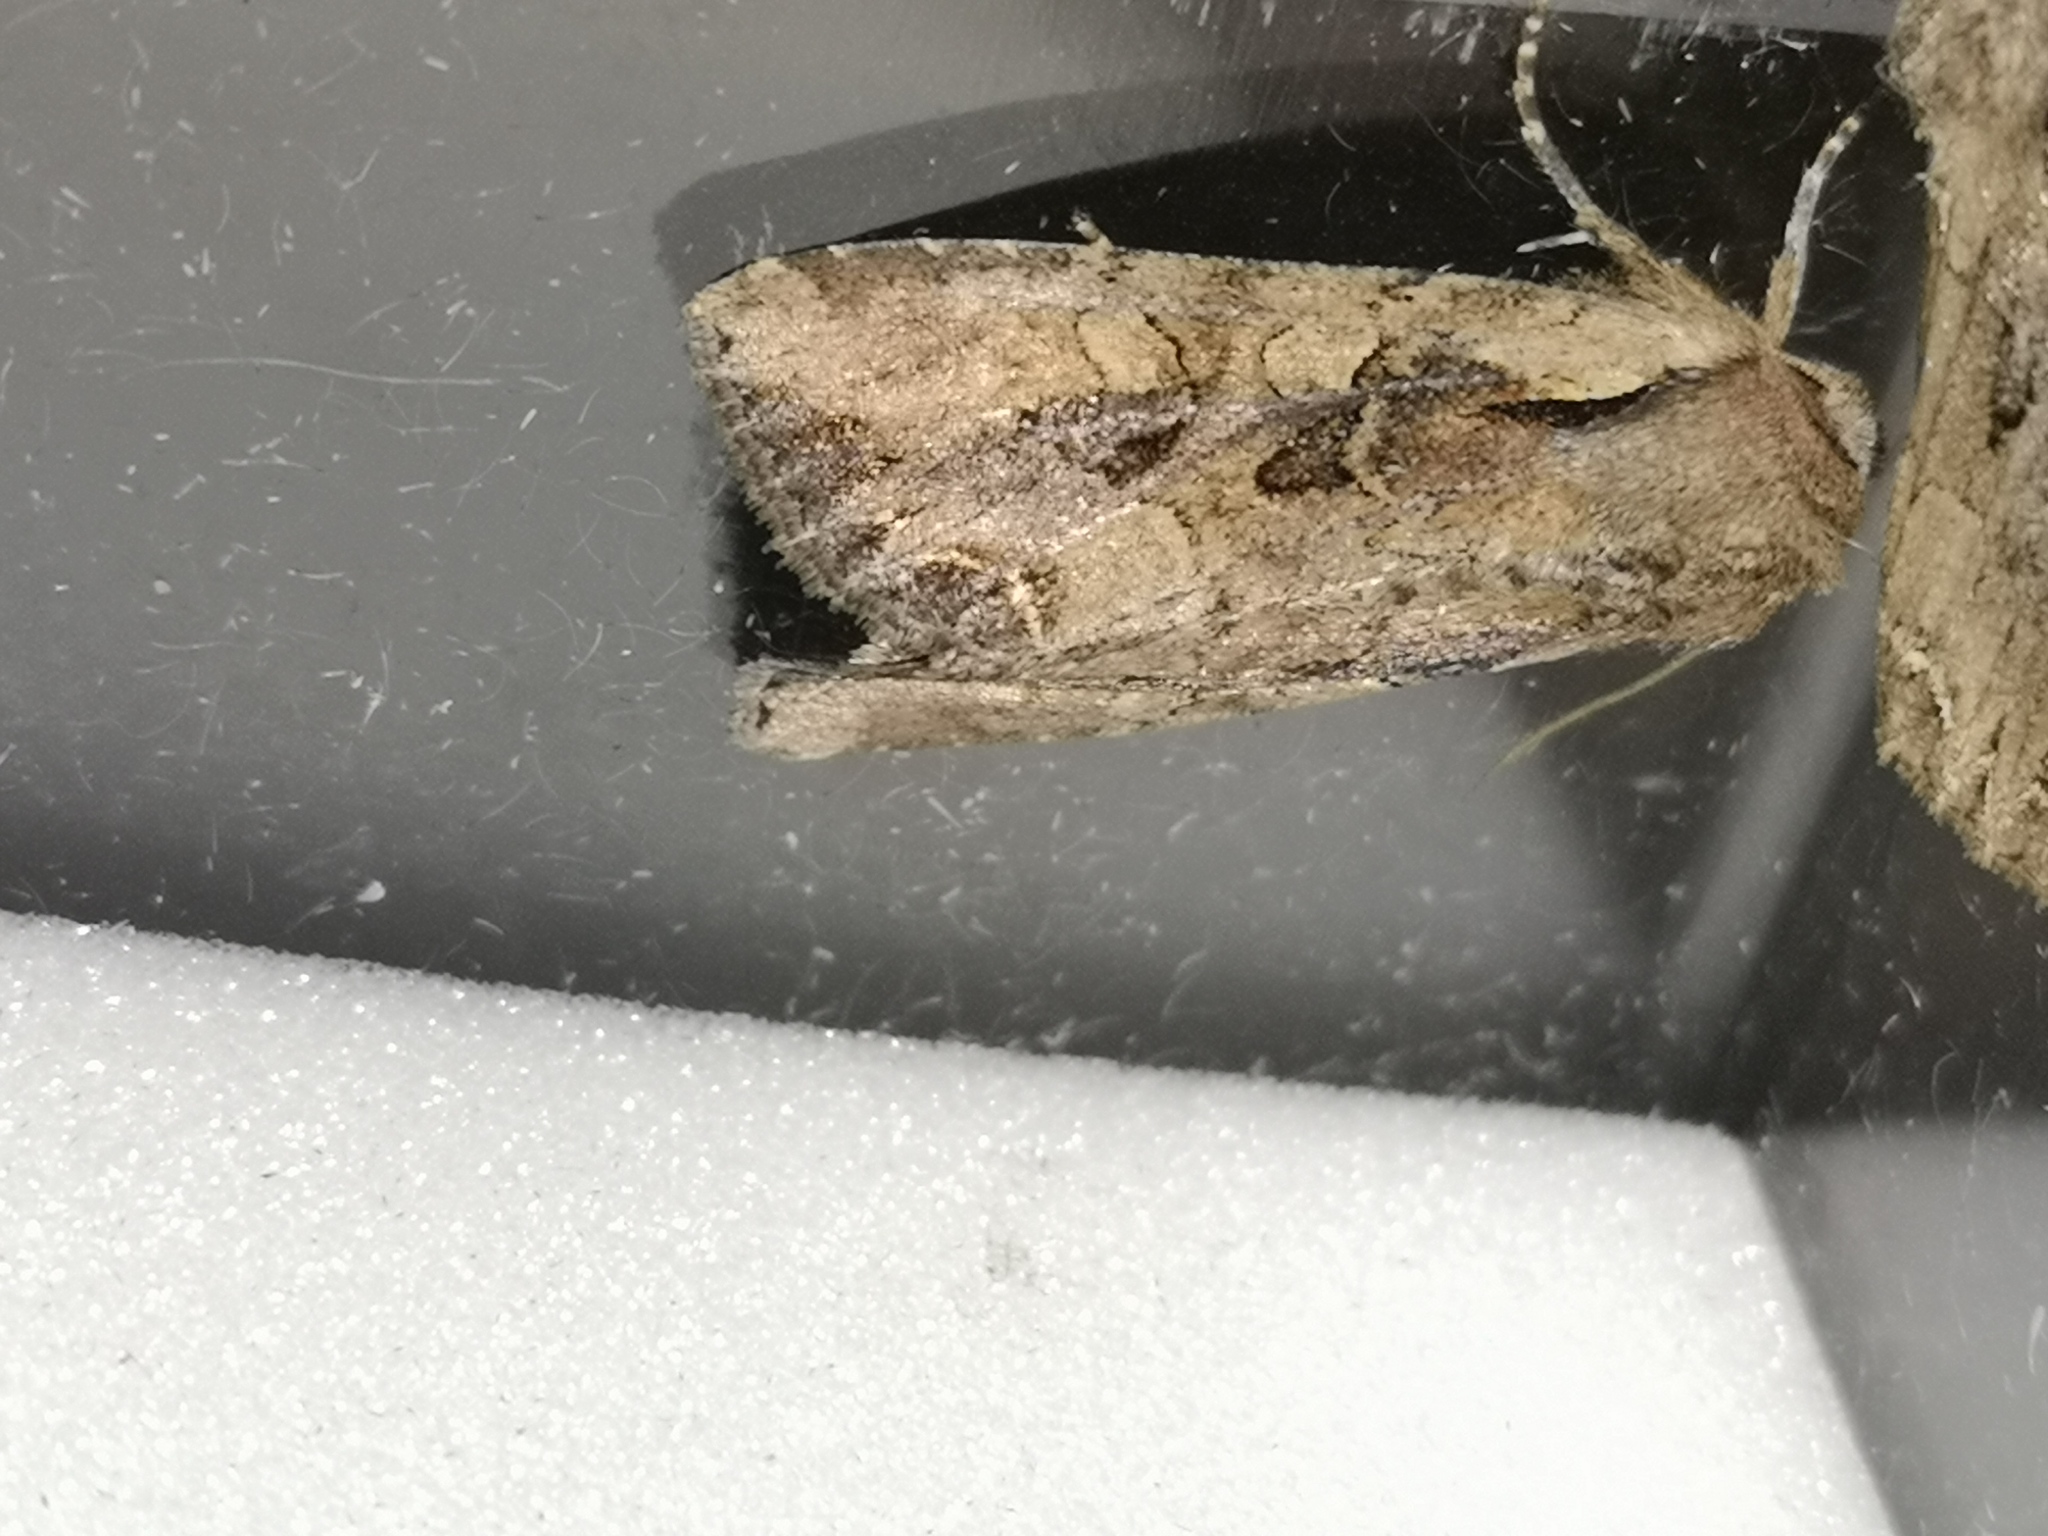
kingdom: Animalia
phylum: Arthropoda
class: Insecta
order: Lepidoptera
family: Noctuidae
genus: Lacanobia
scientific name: Lacanobia suasa
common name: Dog's tooth
